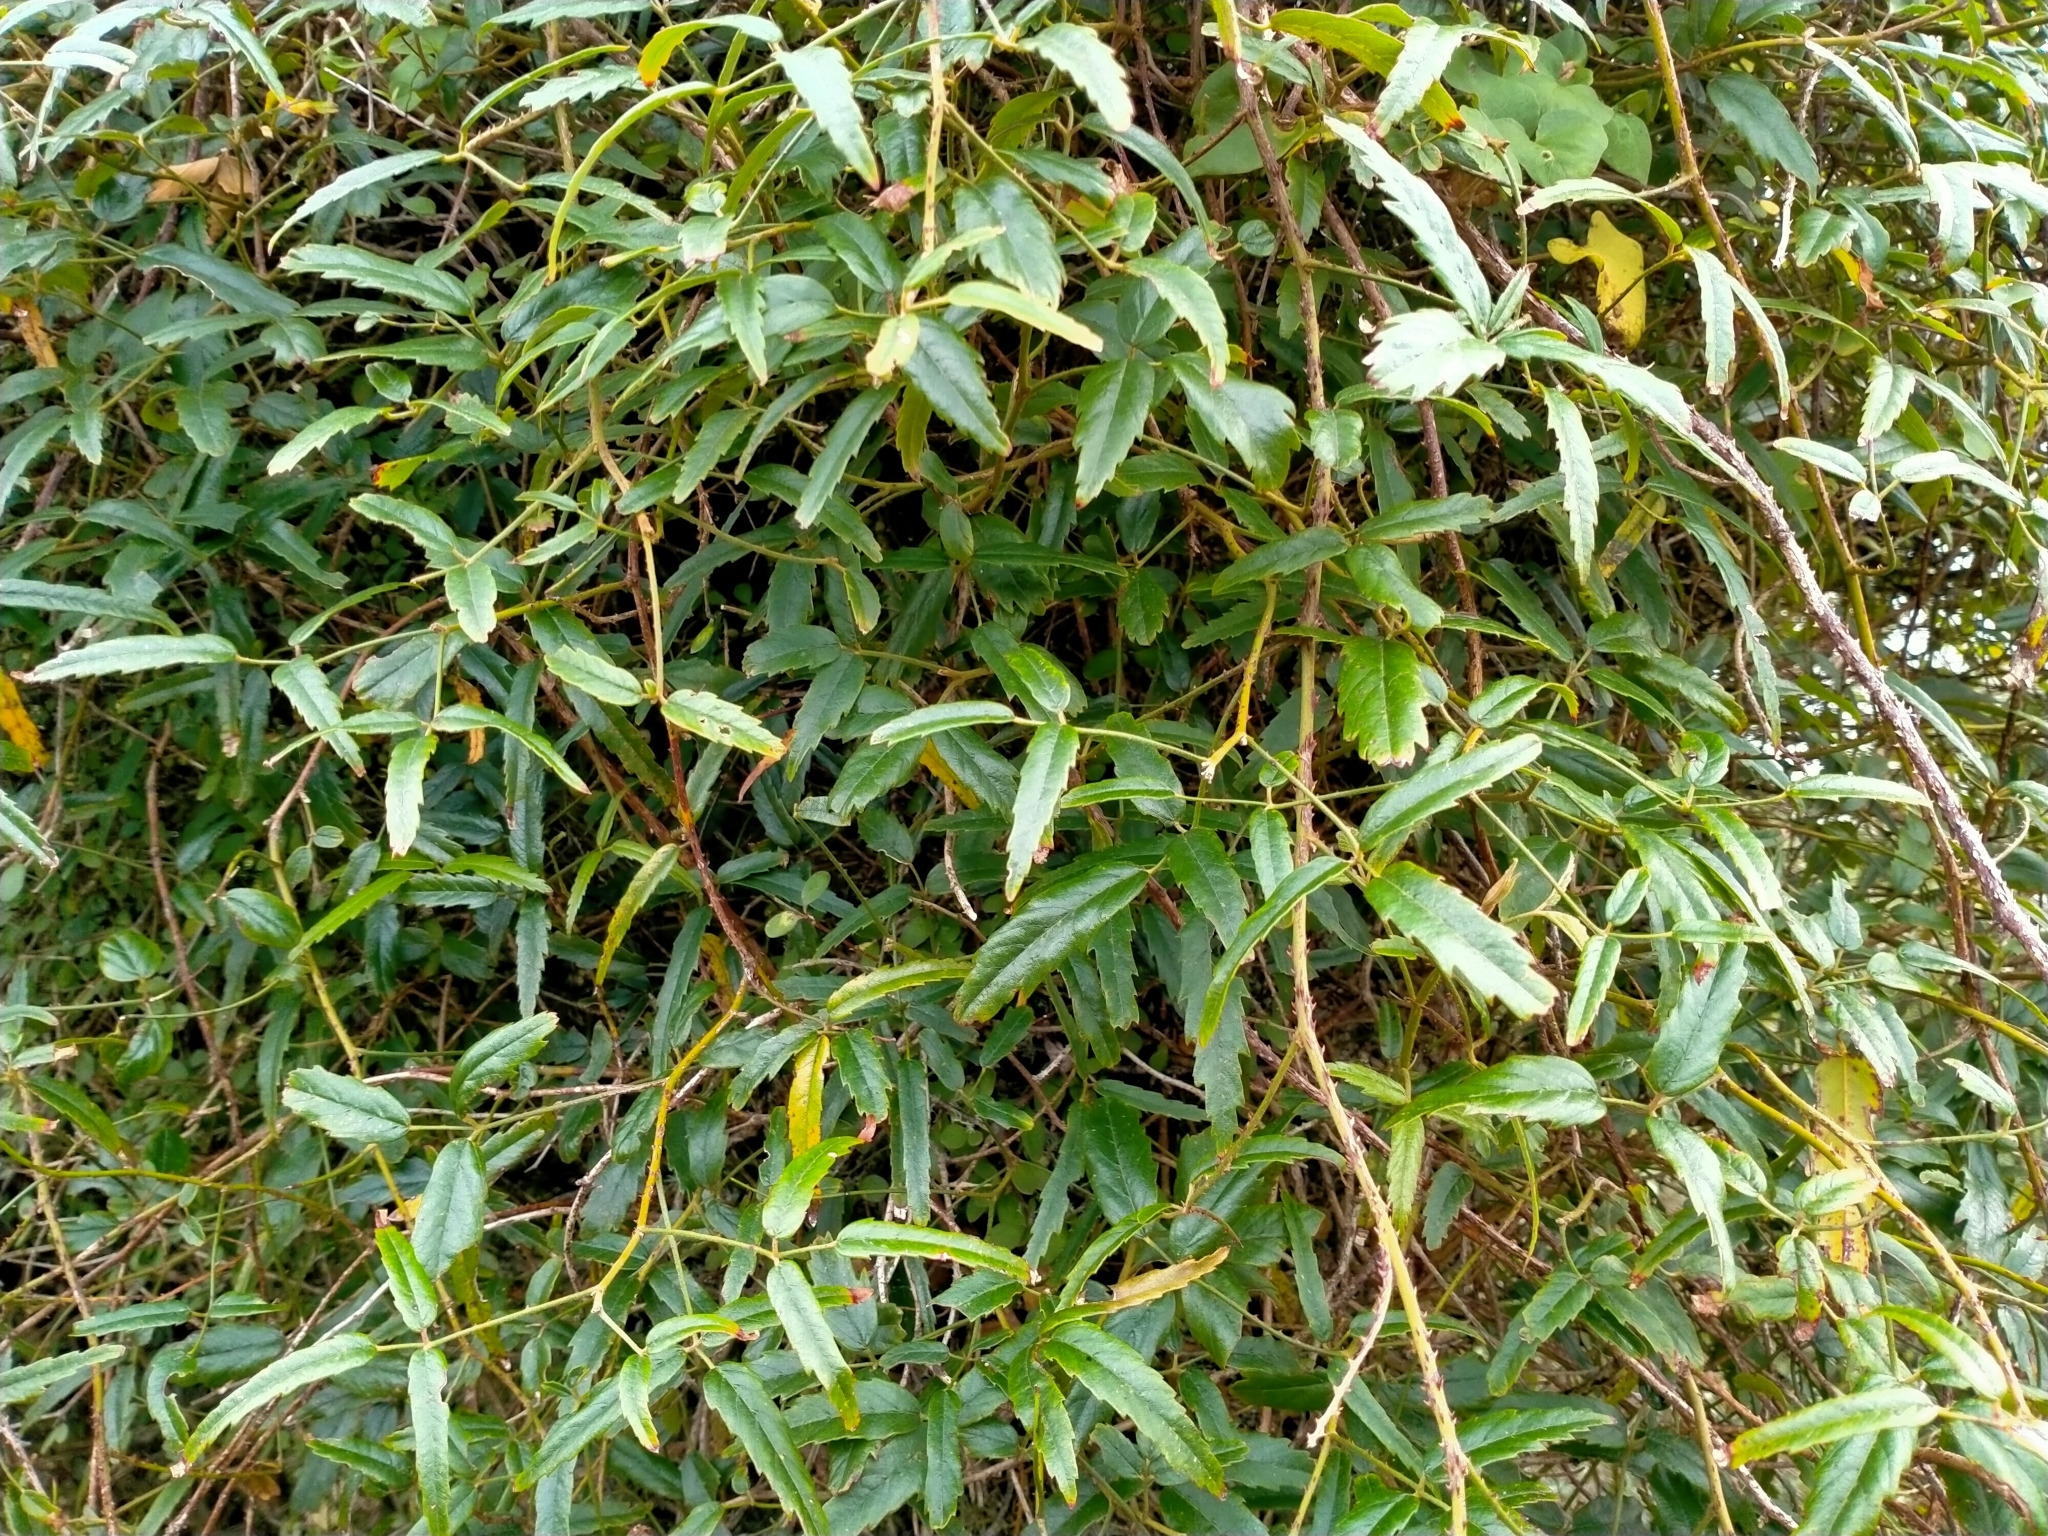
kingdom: Plantae
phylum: Tracheophyta
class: Magnoliopsida
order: Rosales
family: Rosaceae
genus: Rubus
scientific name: Rubus schmidelioides
